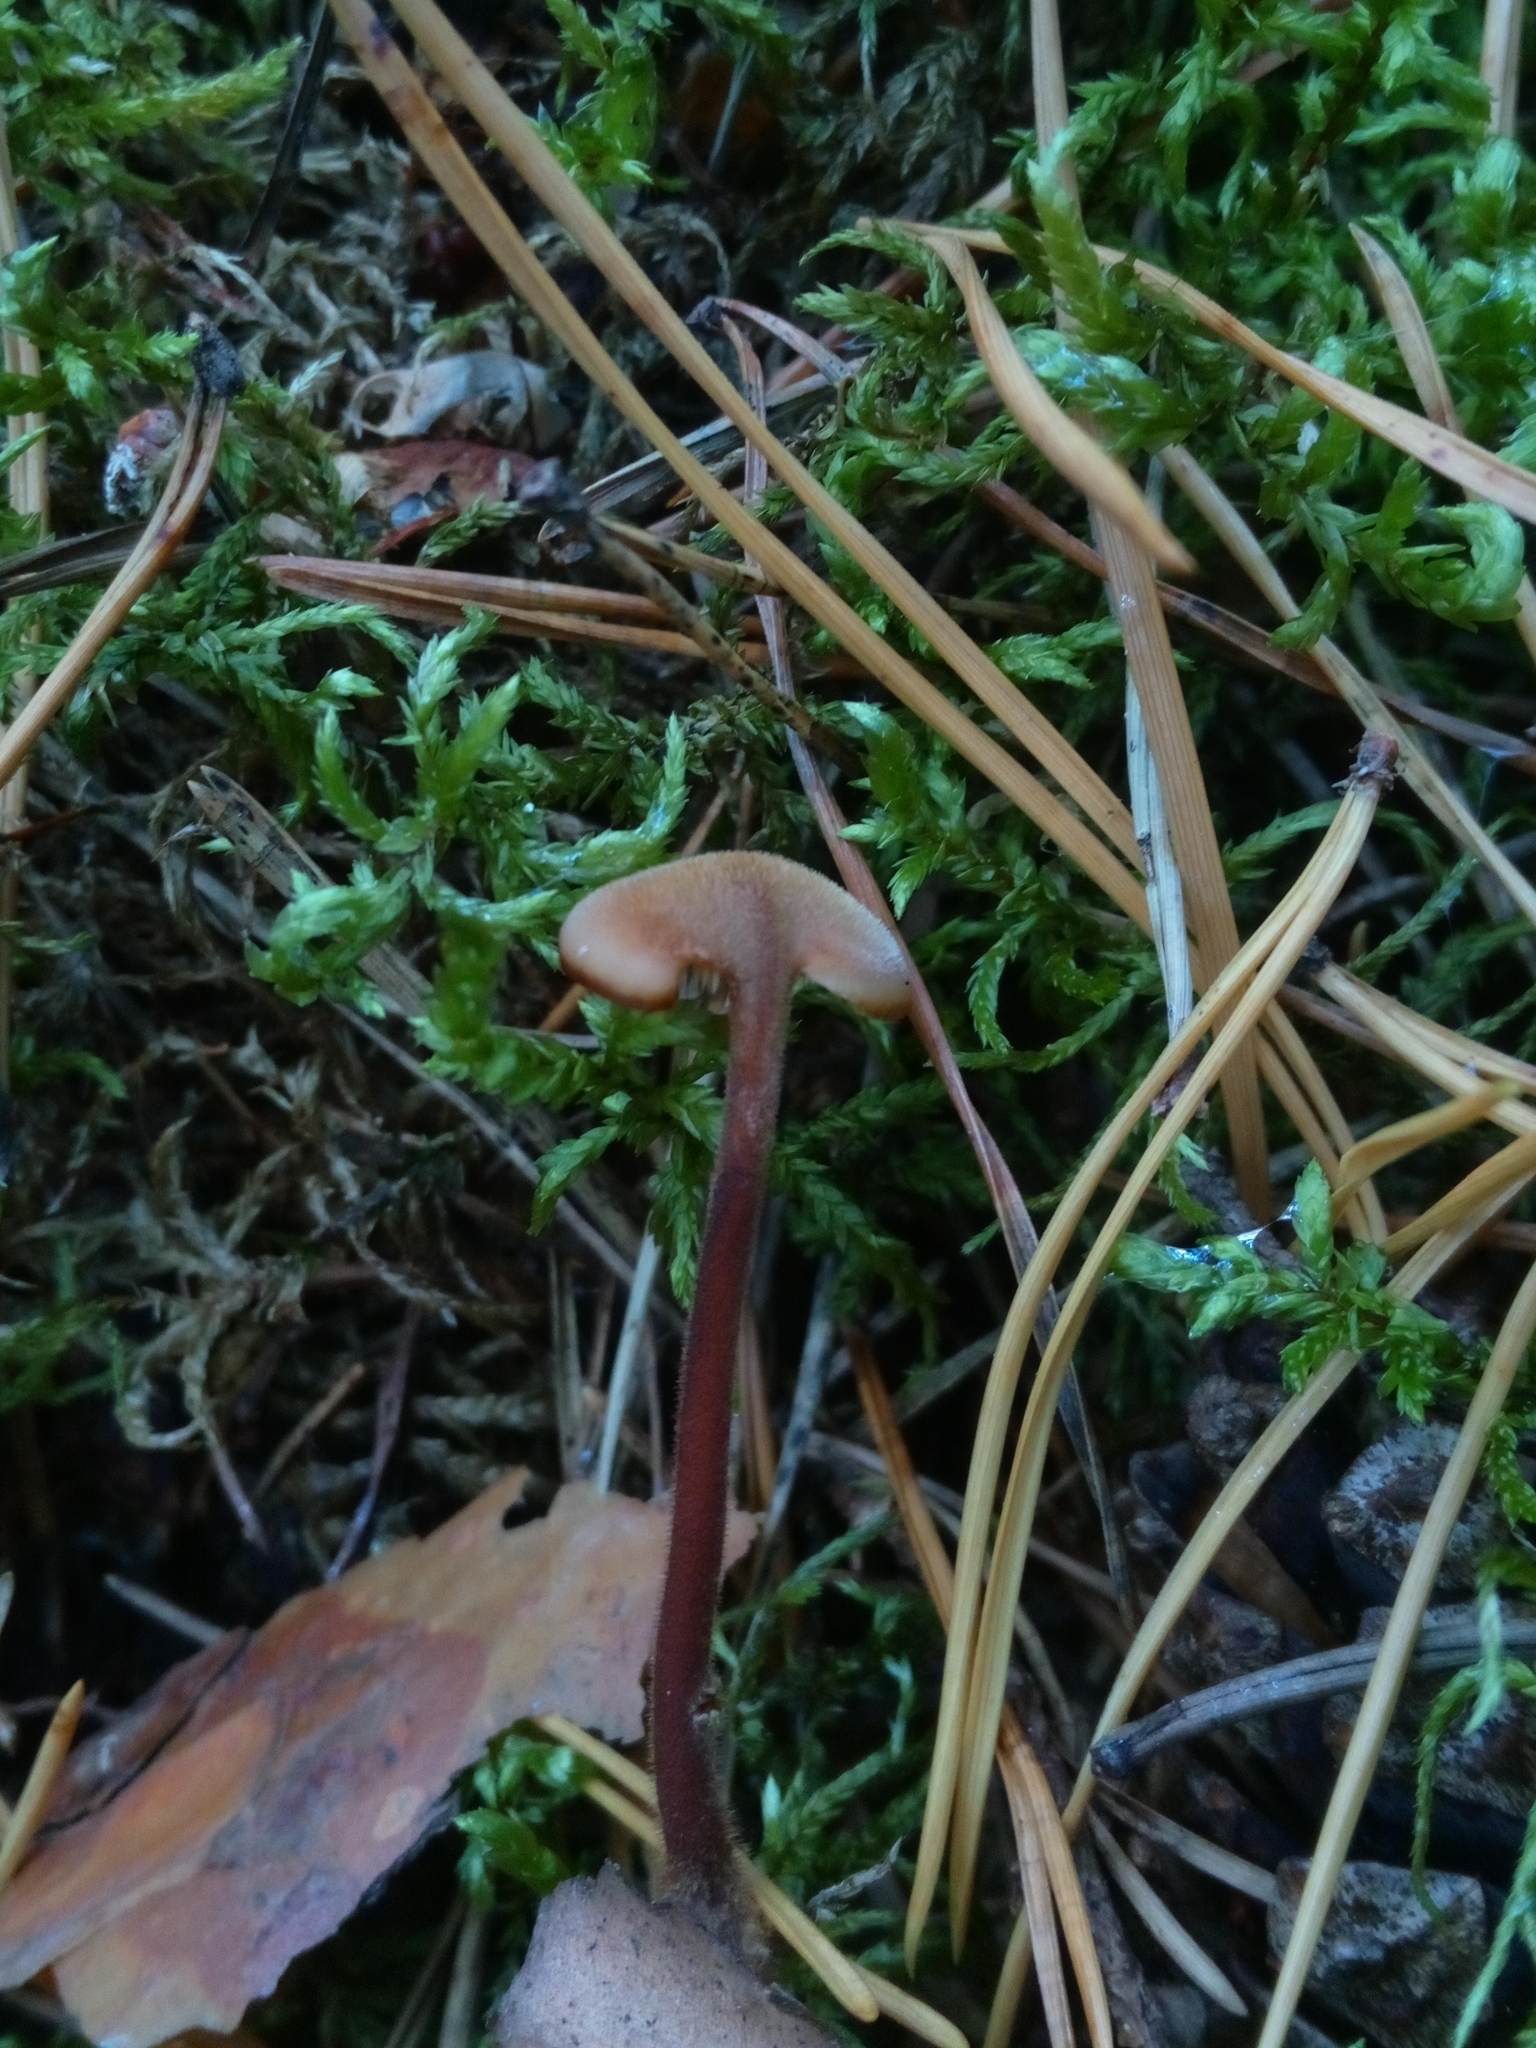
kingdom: Fungi
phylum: Basidiomycota
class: Agaricomycetes
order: Russulales
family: Auriscalpiaceae
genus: Auriscalpium
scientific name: Auriscalpium vulgare
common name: Earpick fungus
